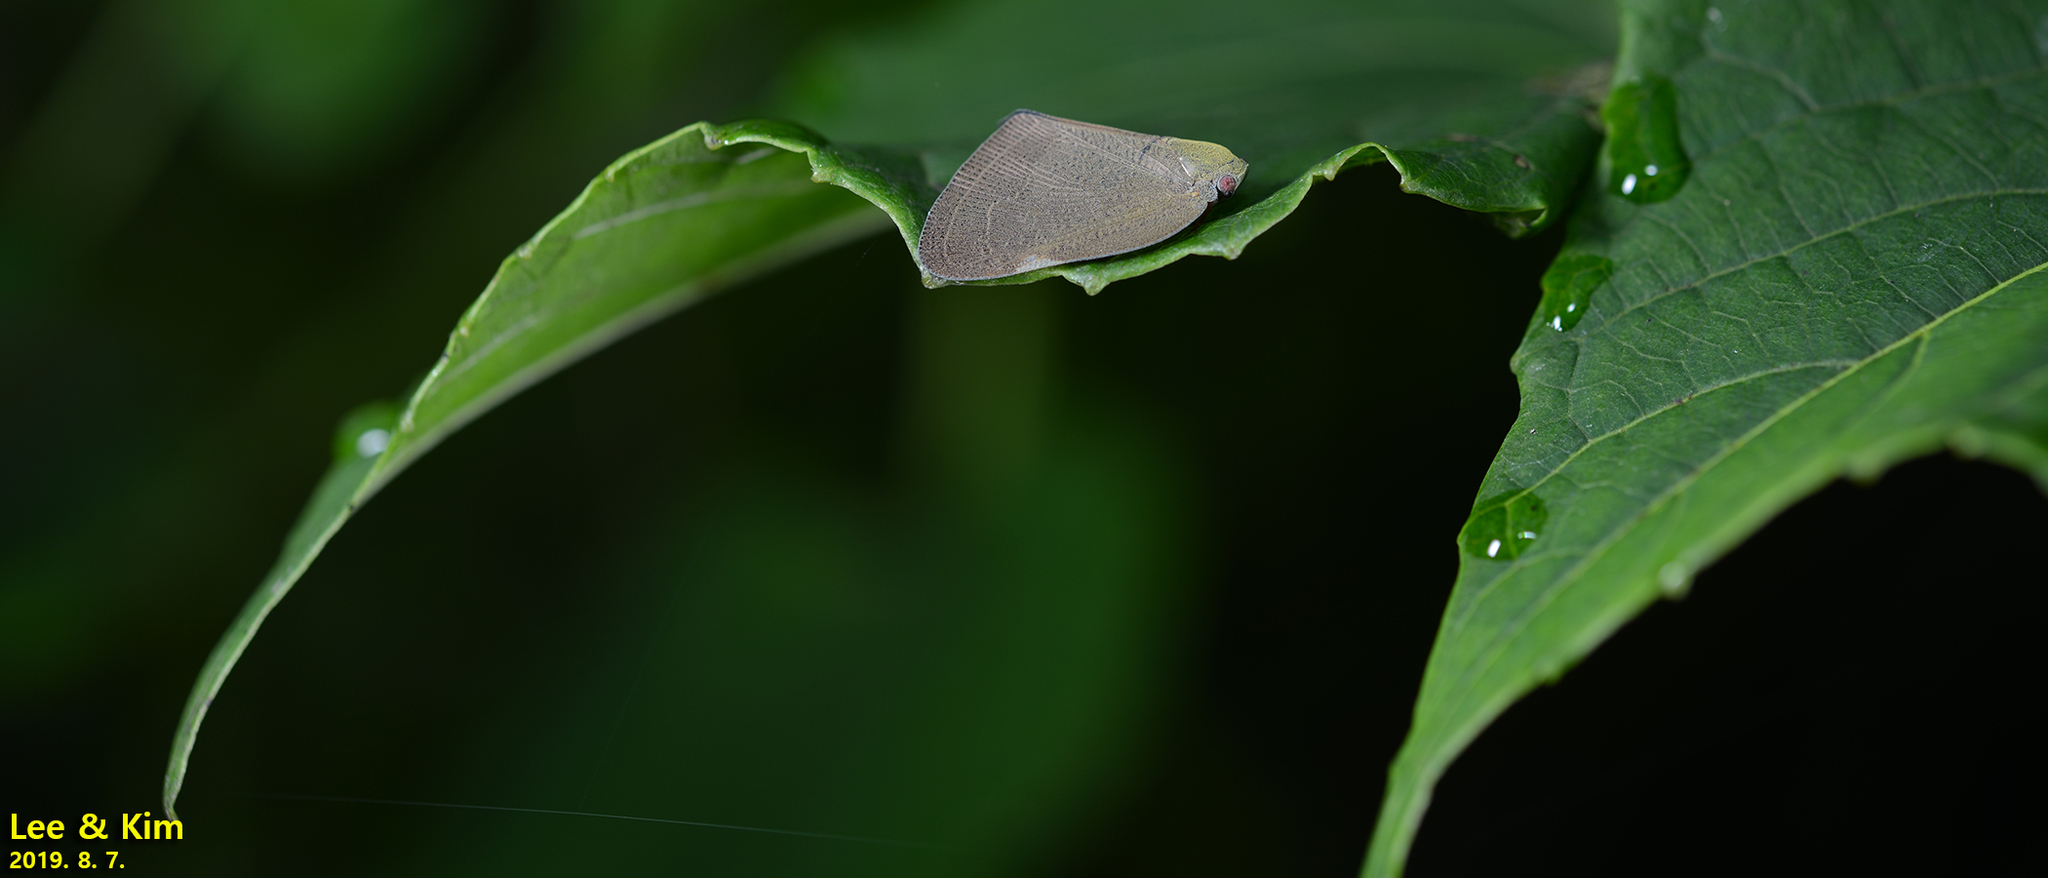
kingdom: Animalia
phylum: Arthropoda
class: Insecta
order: Hemiptera
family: Ricaniidae
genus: Ricanula
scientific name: Ricanula sublimata
